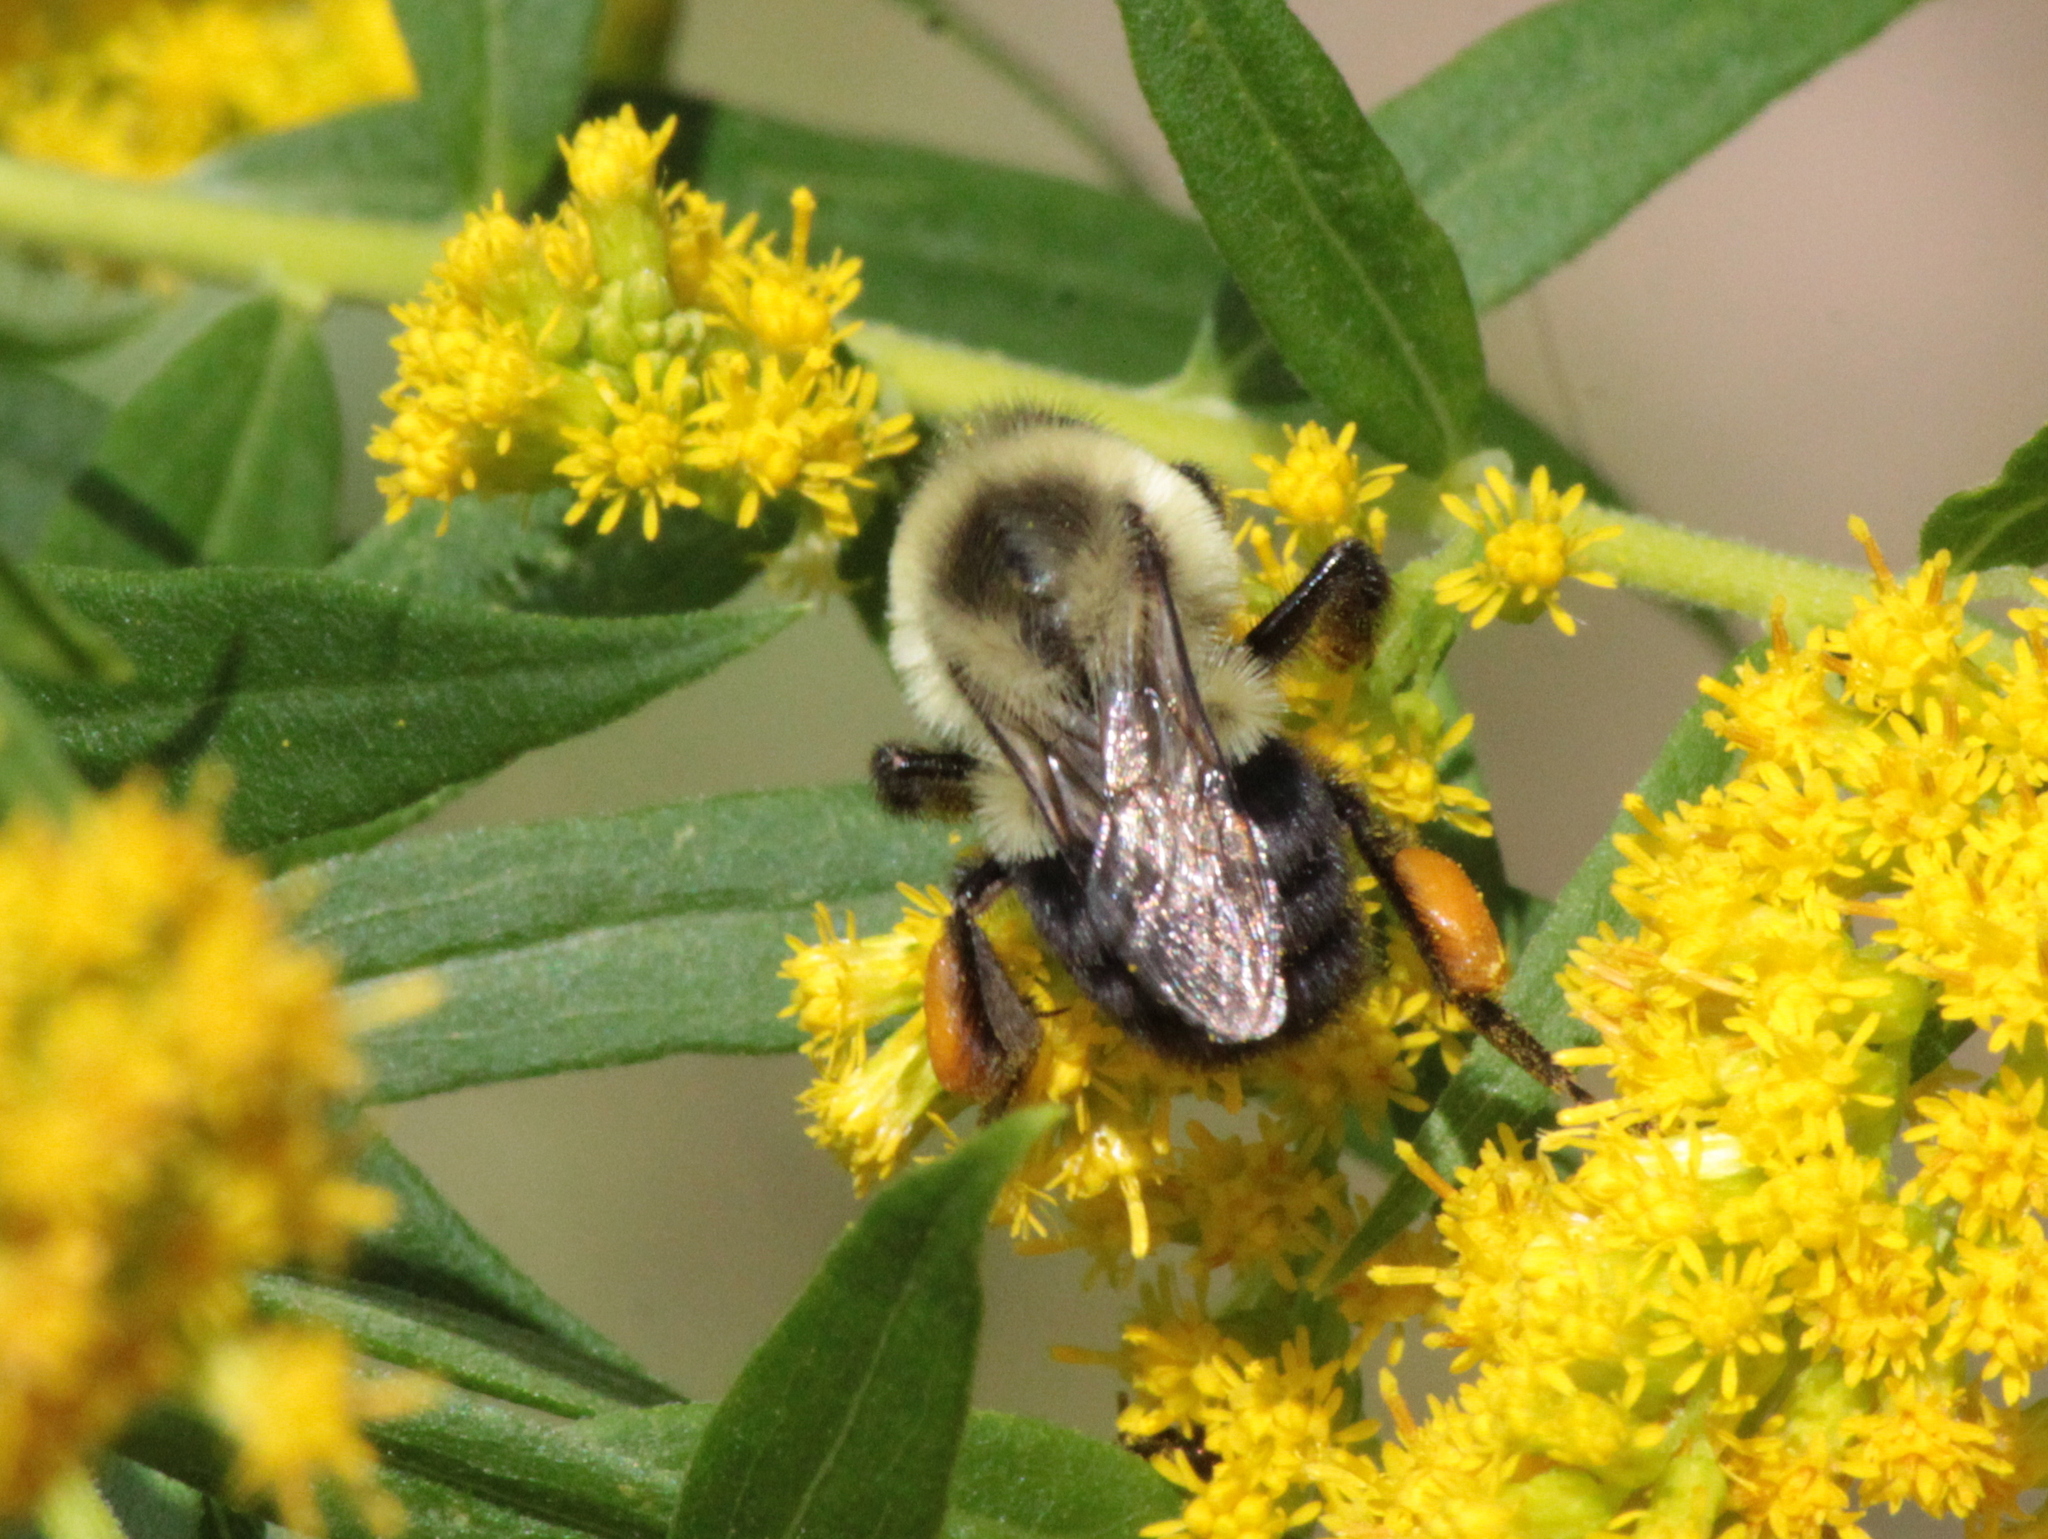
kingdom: Animalia
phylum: Arthropoda
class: Insecta
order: Hymenoptera
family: Apidae
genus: Bombus
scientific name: Bombus impatiens
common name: Common eastern bumble bee
